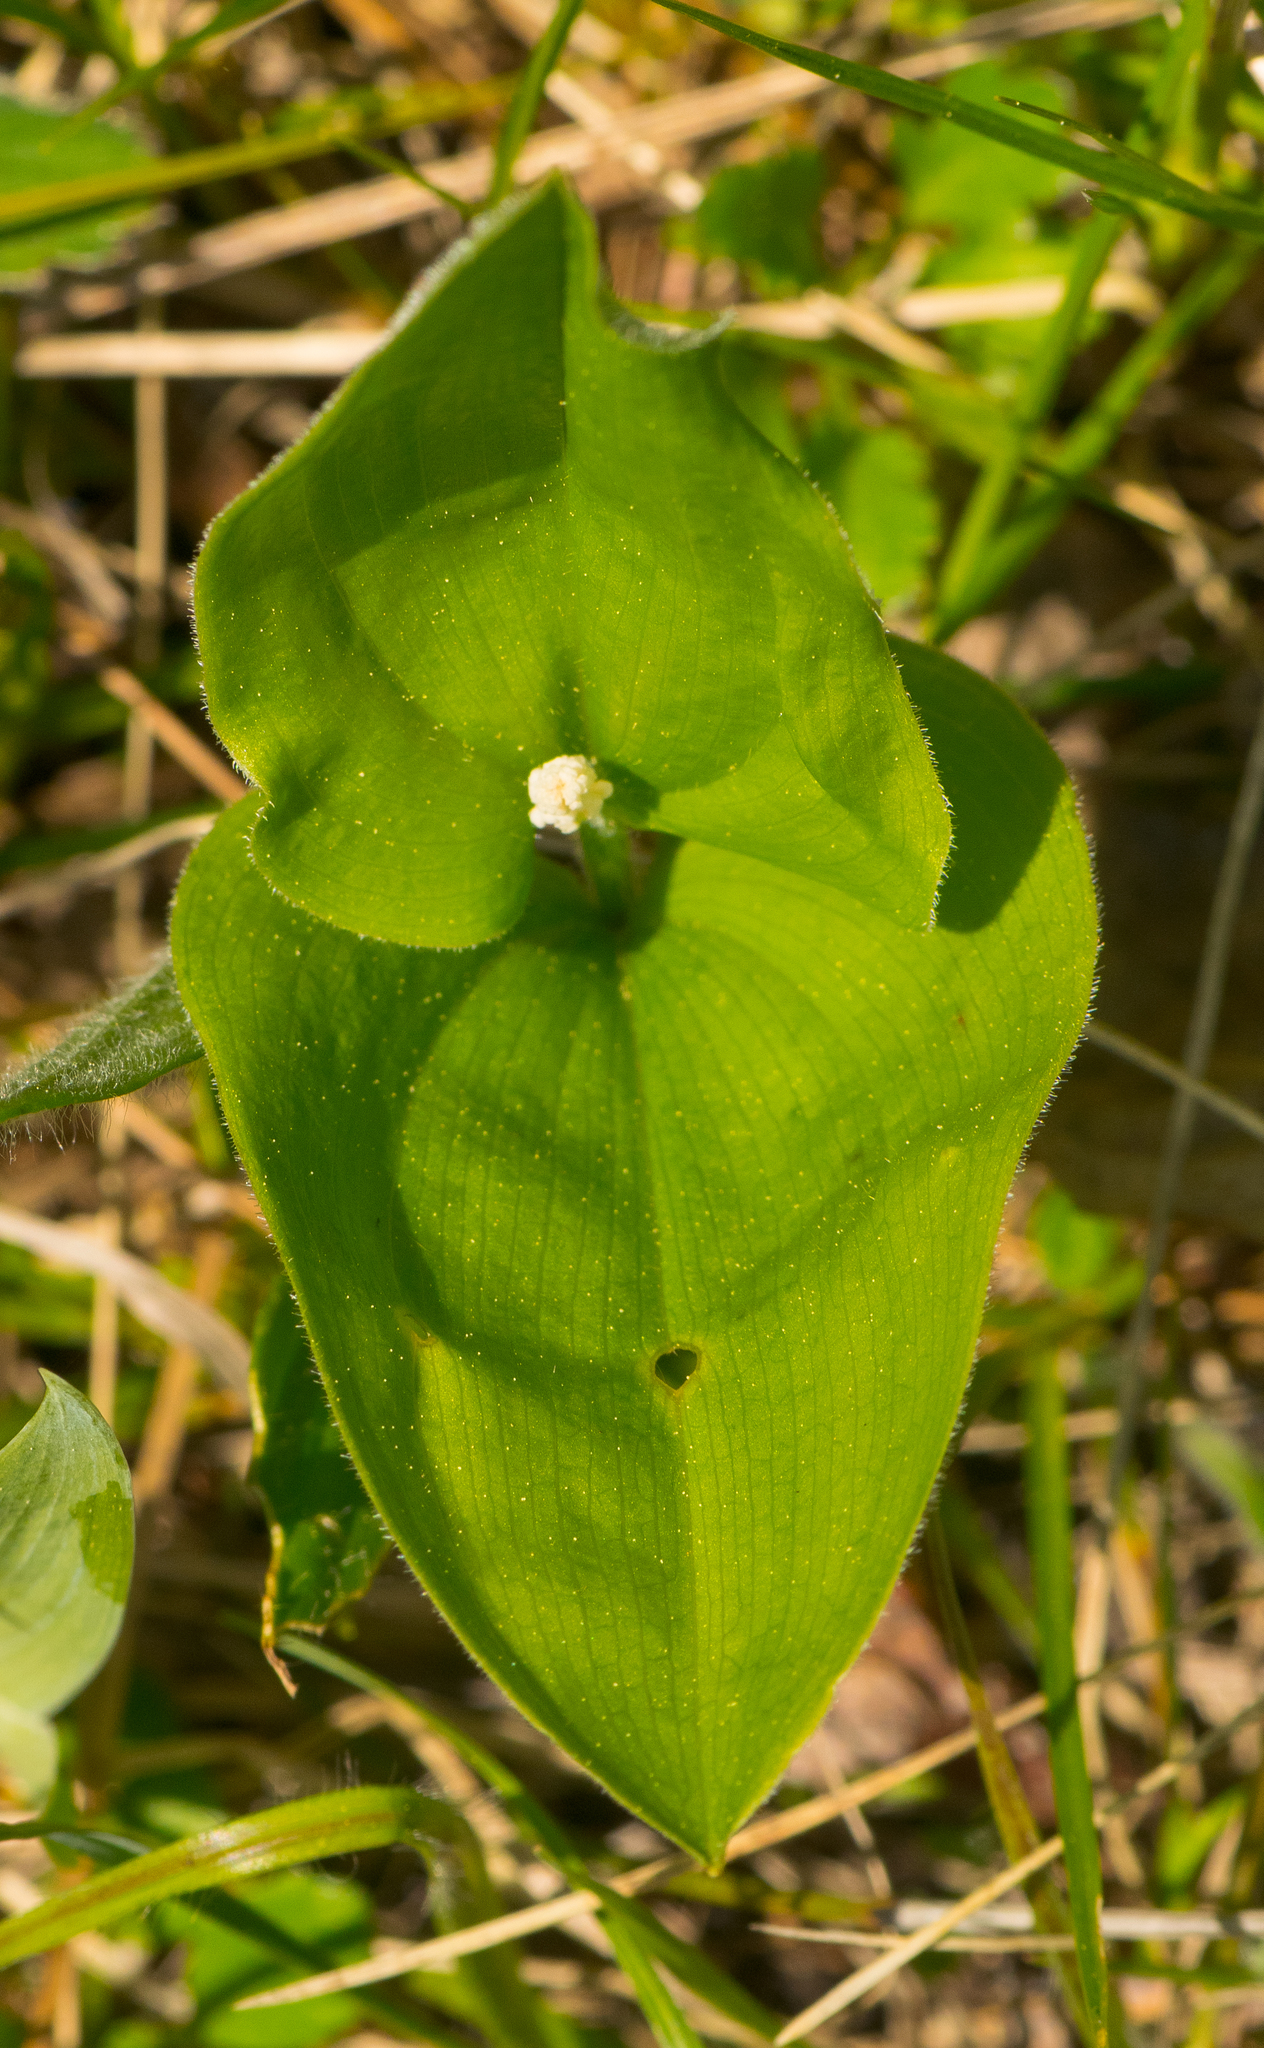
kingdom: Plantae
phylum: Tracheophyta
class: Liliopsida
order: Asparagales
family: Asparagaceae
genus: Maianthemum
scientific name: Maianthemum canadense
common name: False lily-of-the-valley
